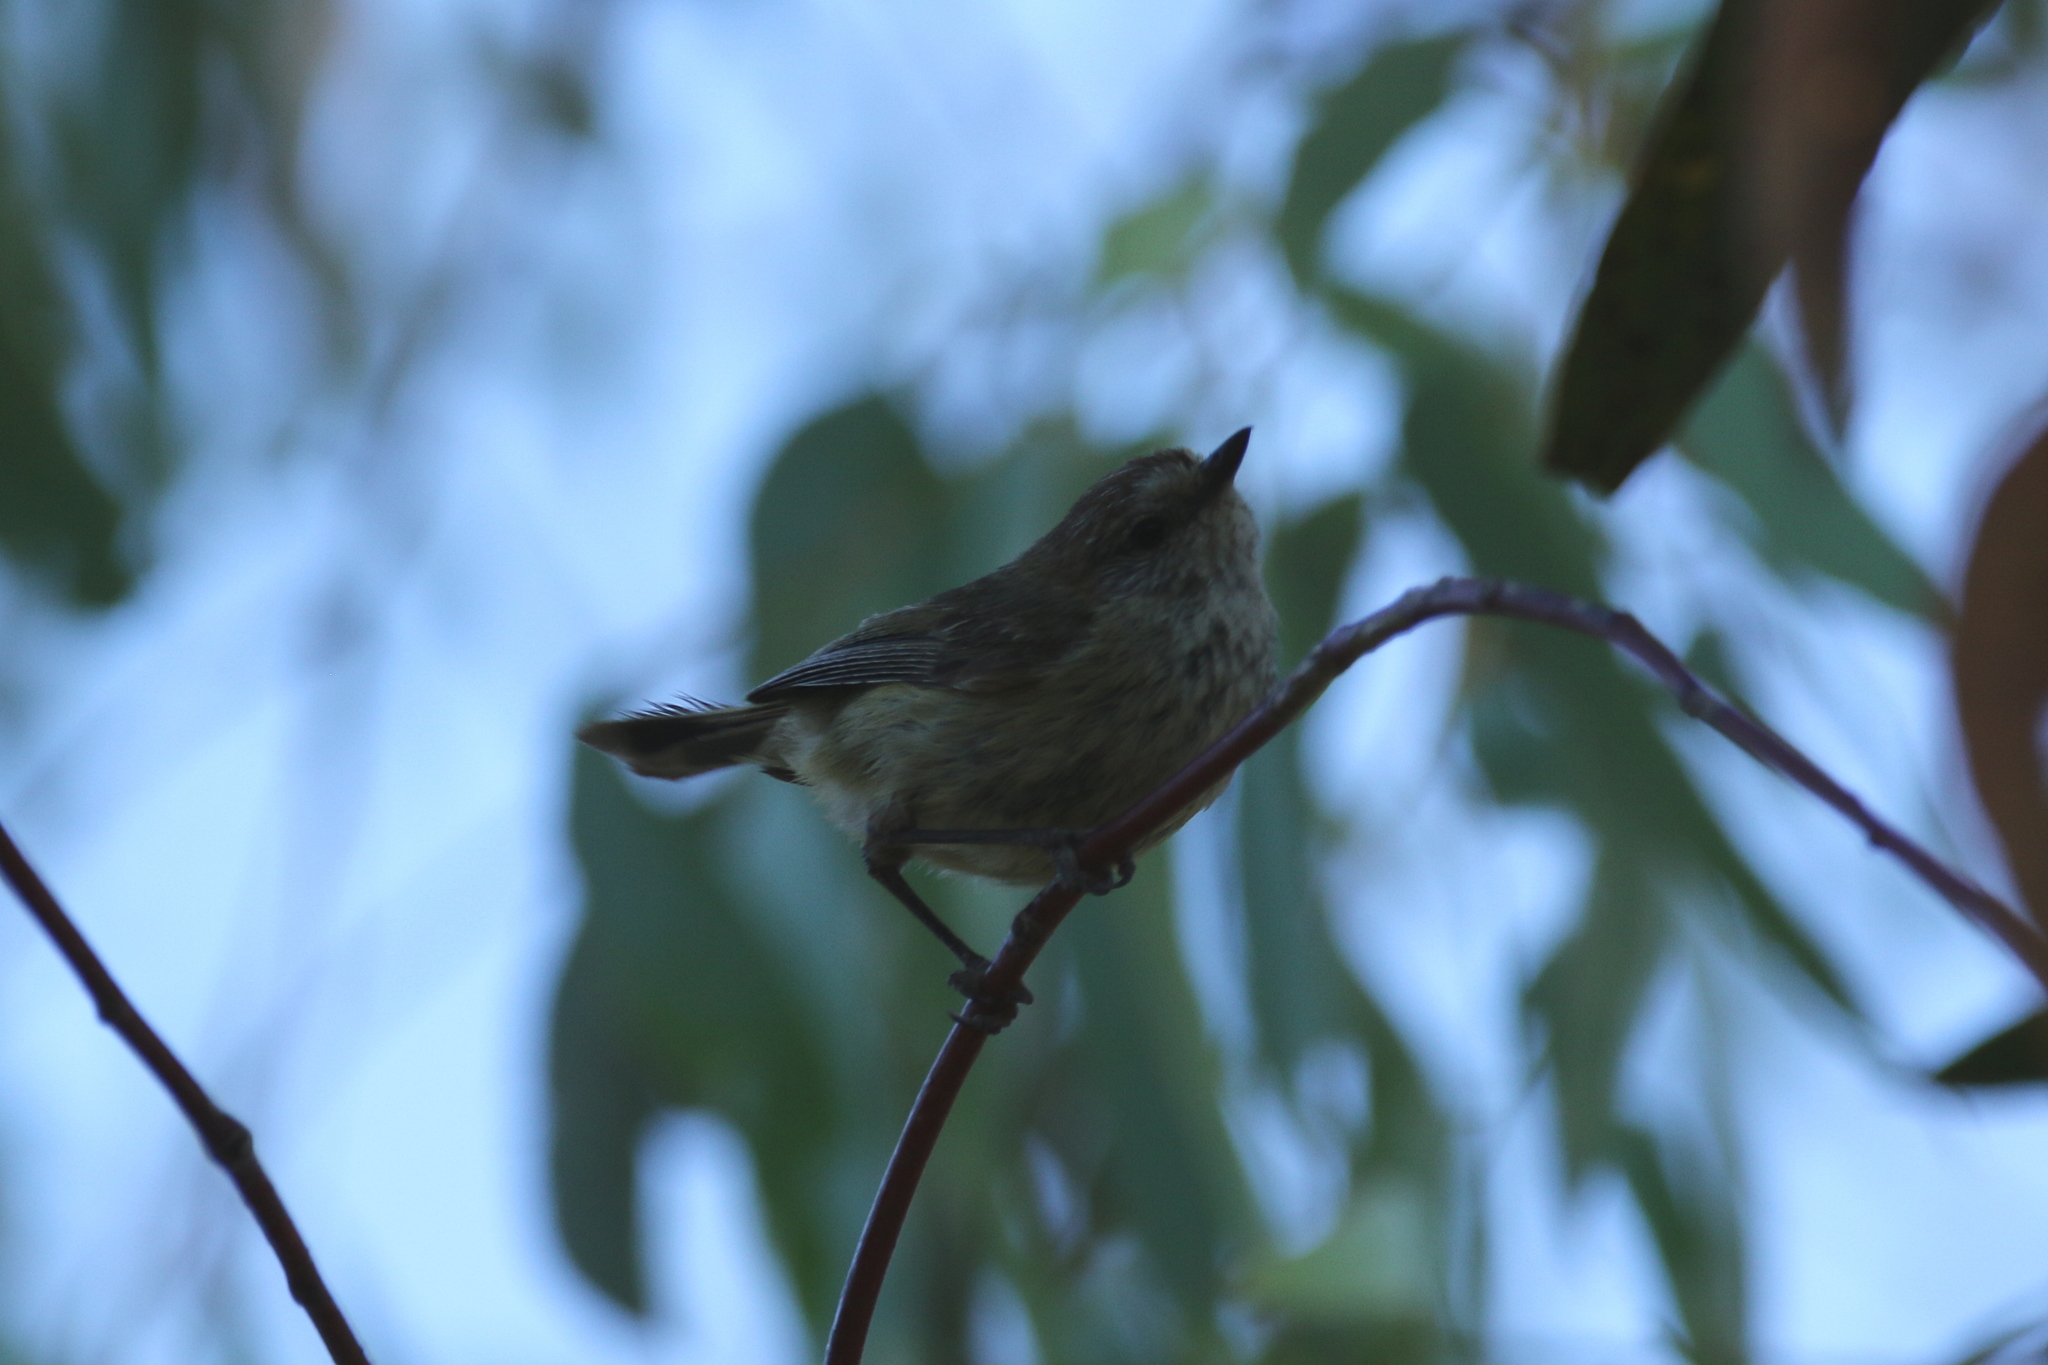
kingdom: Animalia
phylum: Chordata
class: Aves
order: Passeriformes
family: Acanthizidae
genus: Acanthiza
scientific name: Acanthiza lineata
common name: Striated thornbill
